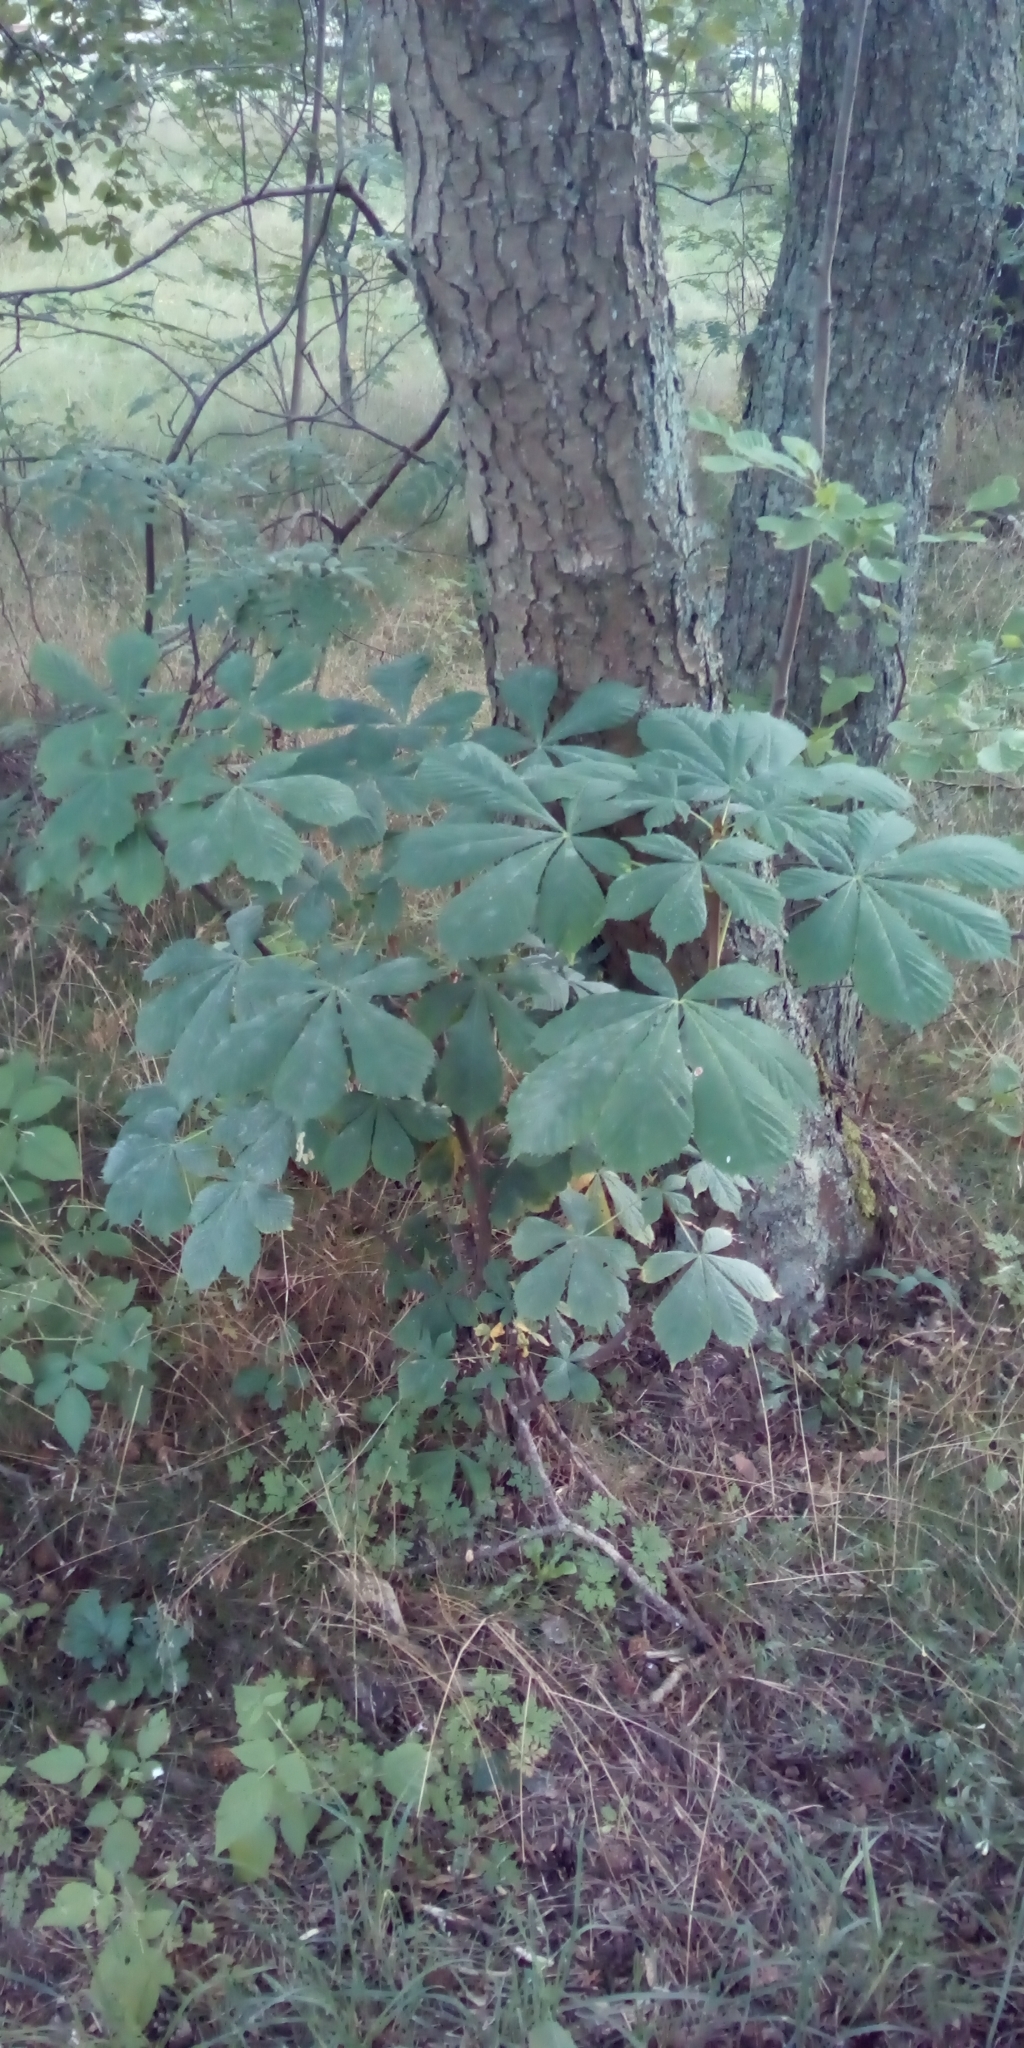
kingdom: Plantae
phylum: Tracheophyta
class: Magnoliopsida
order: Sapindales
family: Sapindaceae
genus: Aesculus
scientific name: Aesculus hippocastanum
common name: Horse-chestnut
